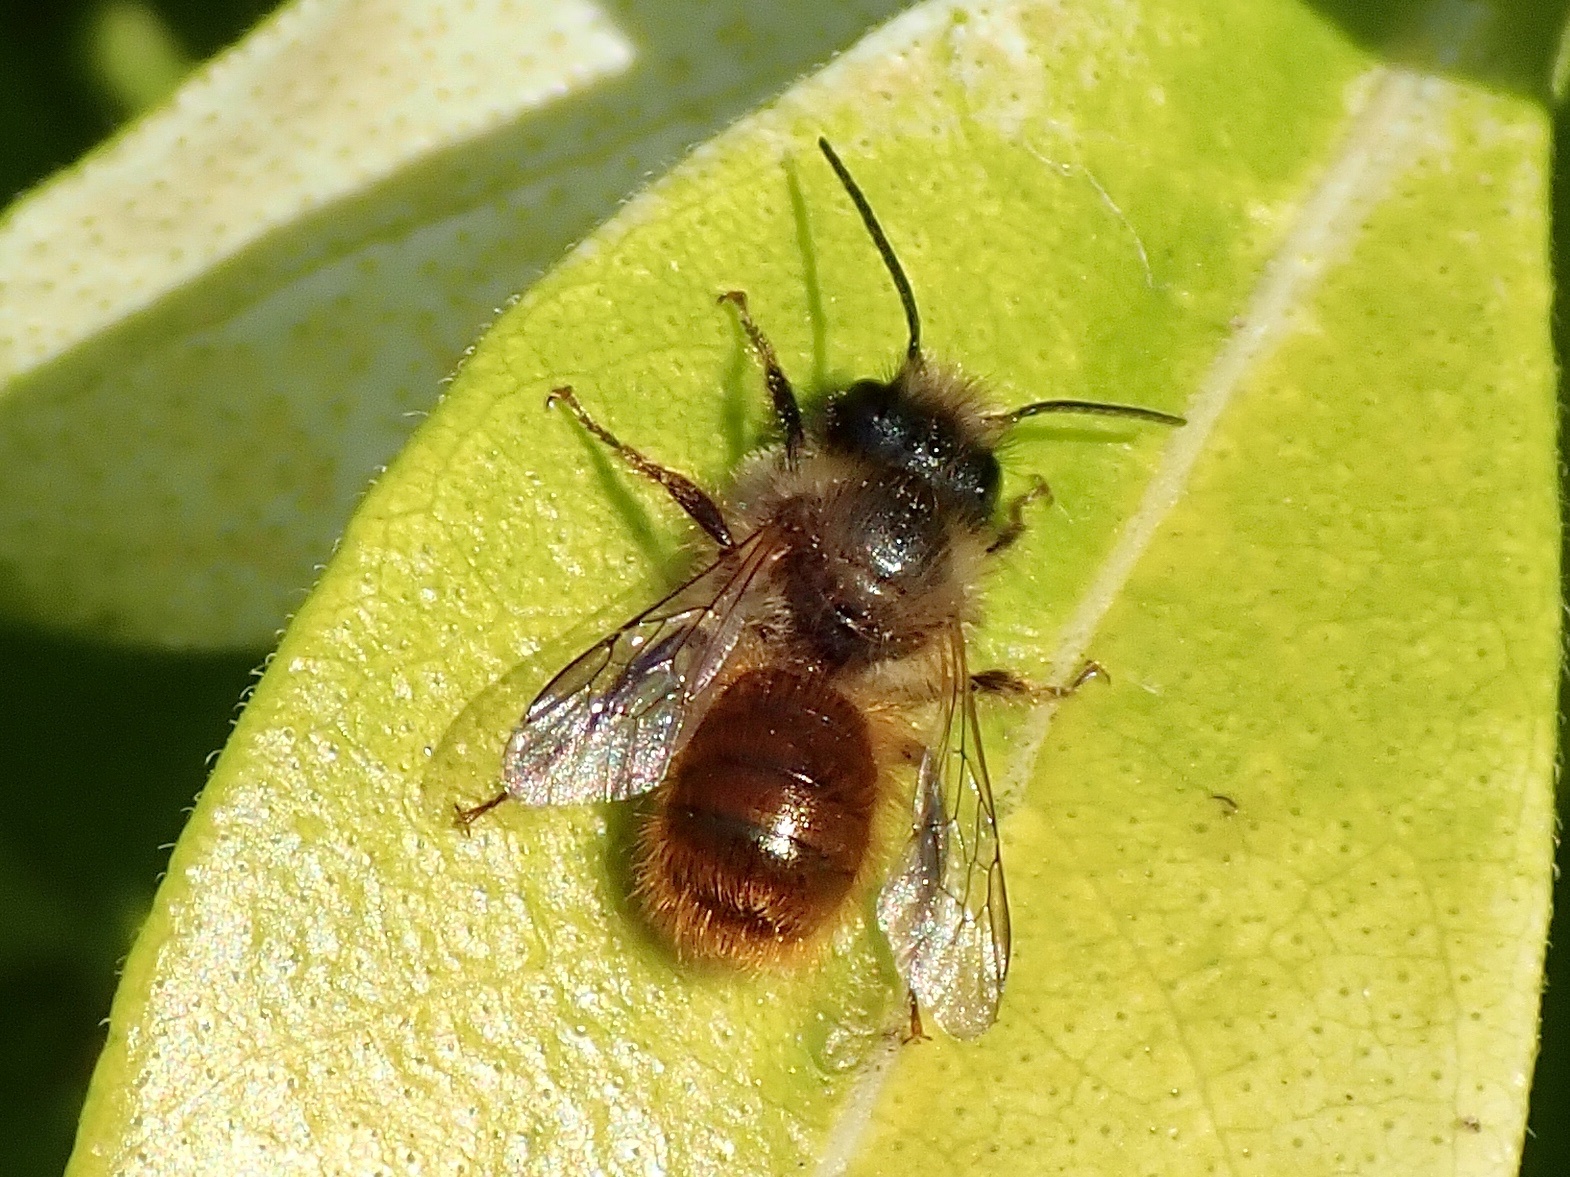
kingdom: Animalia
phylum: Arthropoda
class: Insecta
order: Hymenoptera
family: Megachilidae
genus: Osmia
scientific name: Osmia bicornis
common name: Red mason bee
